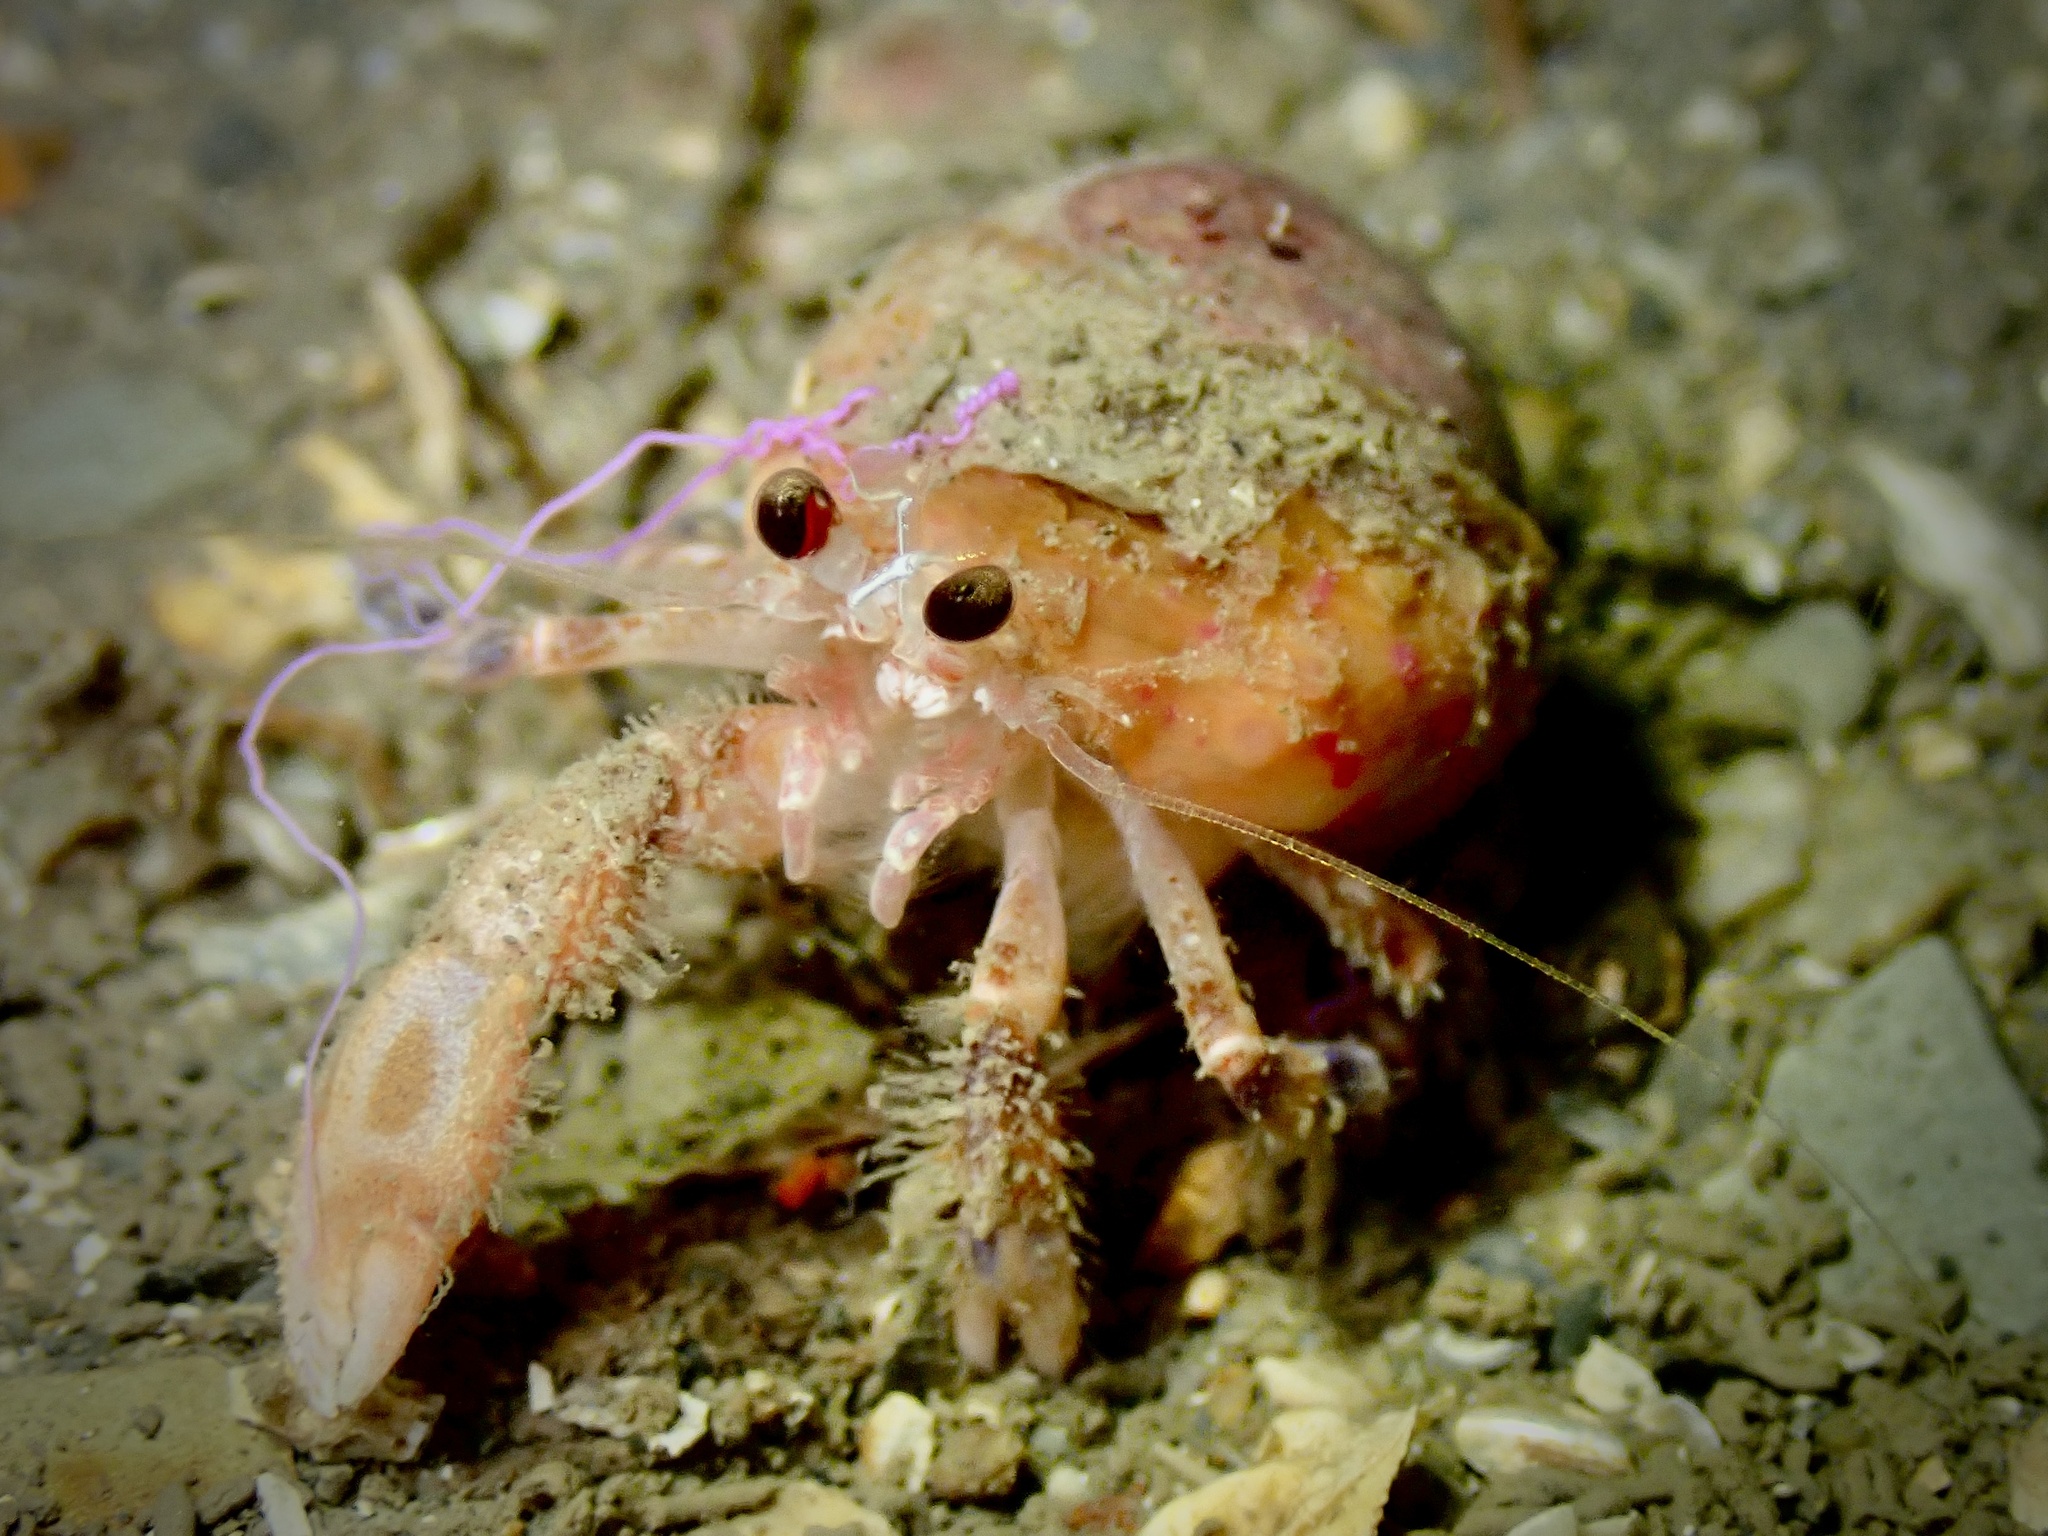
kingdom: Animalia
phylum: Cnidaria
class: Anthozoa
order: Actiniaria
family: Hormathiidae
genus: Calliactis
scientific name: Calliactis palliata
